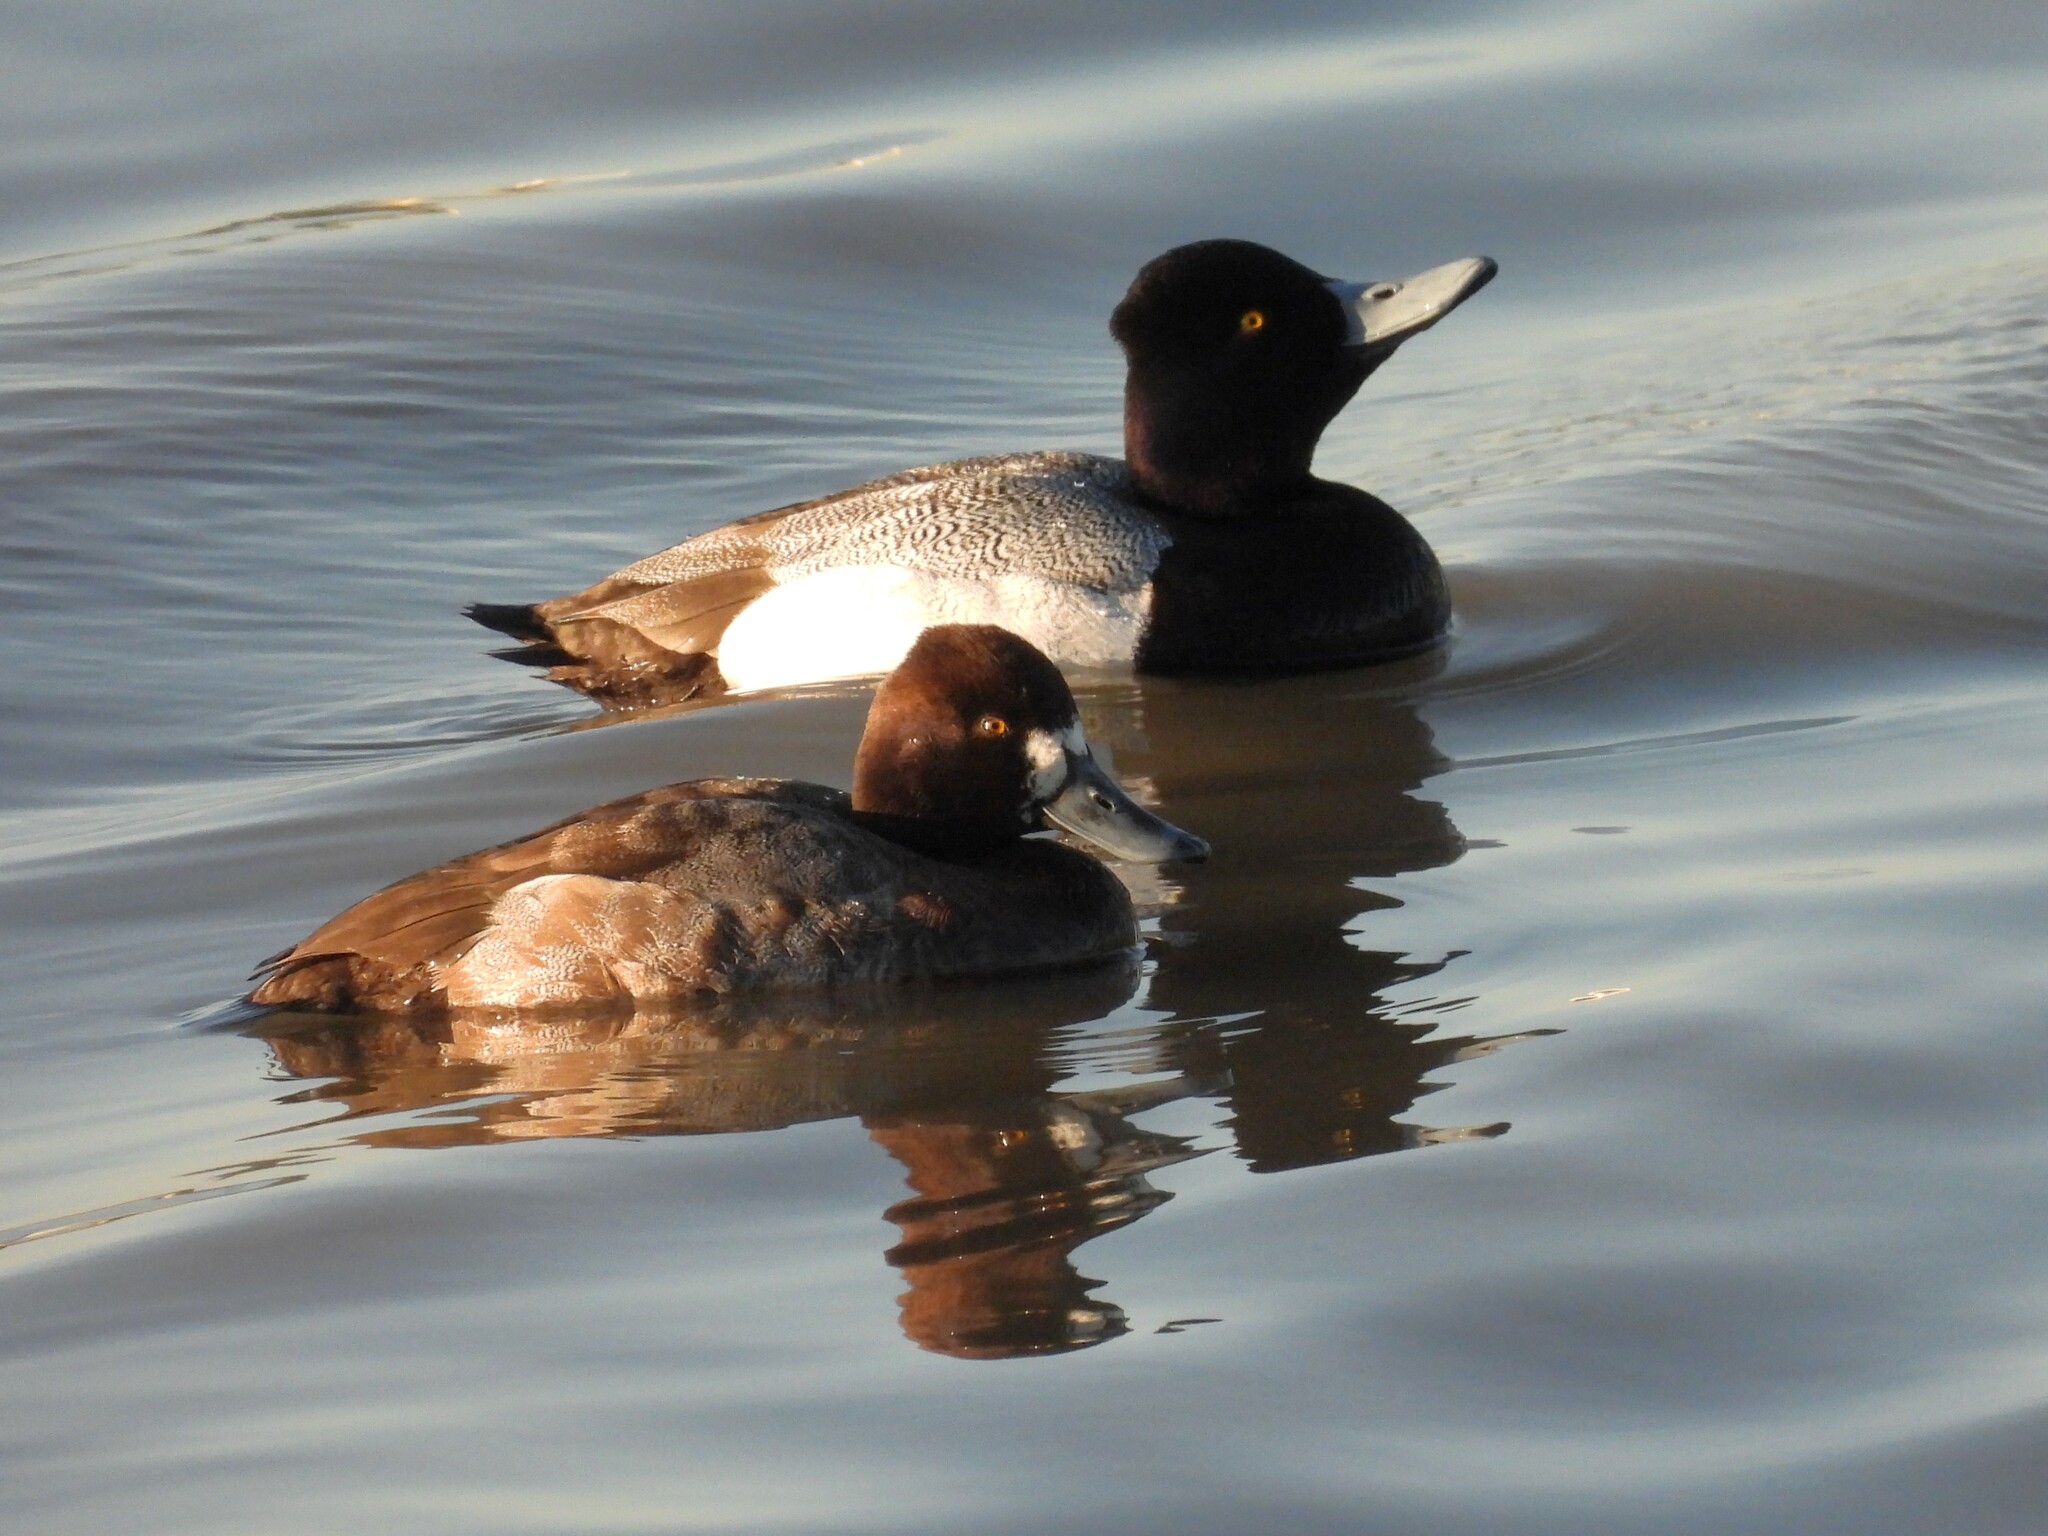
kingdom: Animalia
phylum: Chordata
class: Aves
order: Anseriformes
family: Anatidae
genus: Aythya
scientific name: Aythya affinis
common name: Lesser scaup
